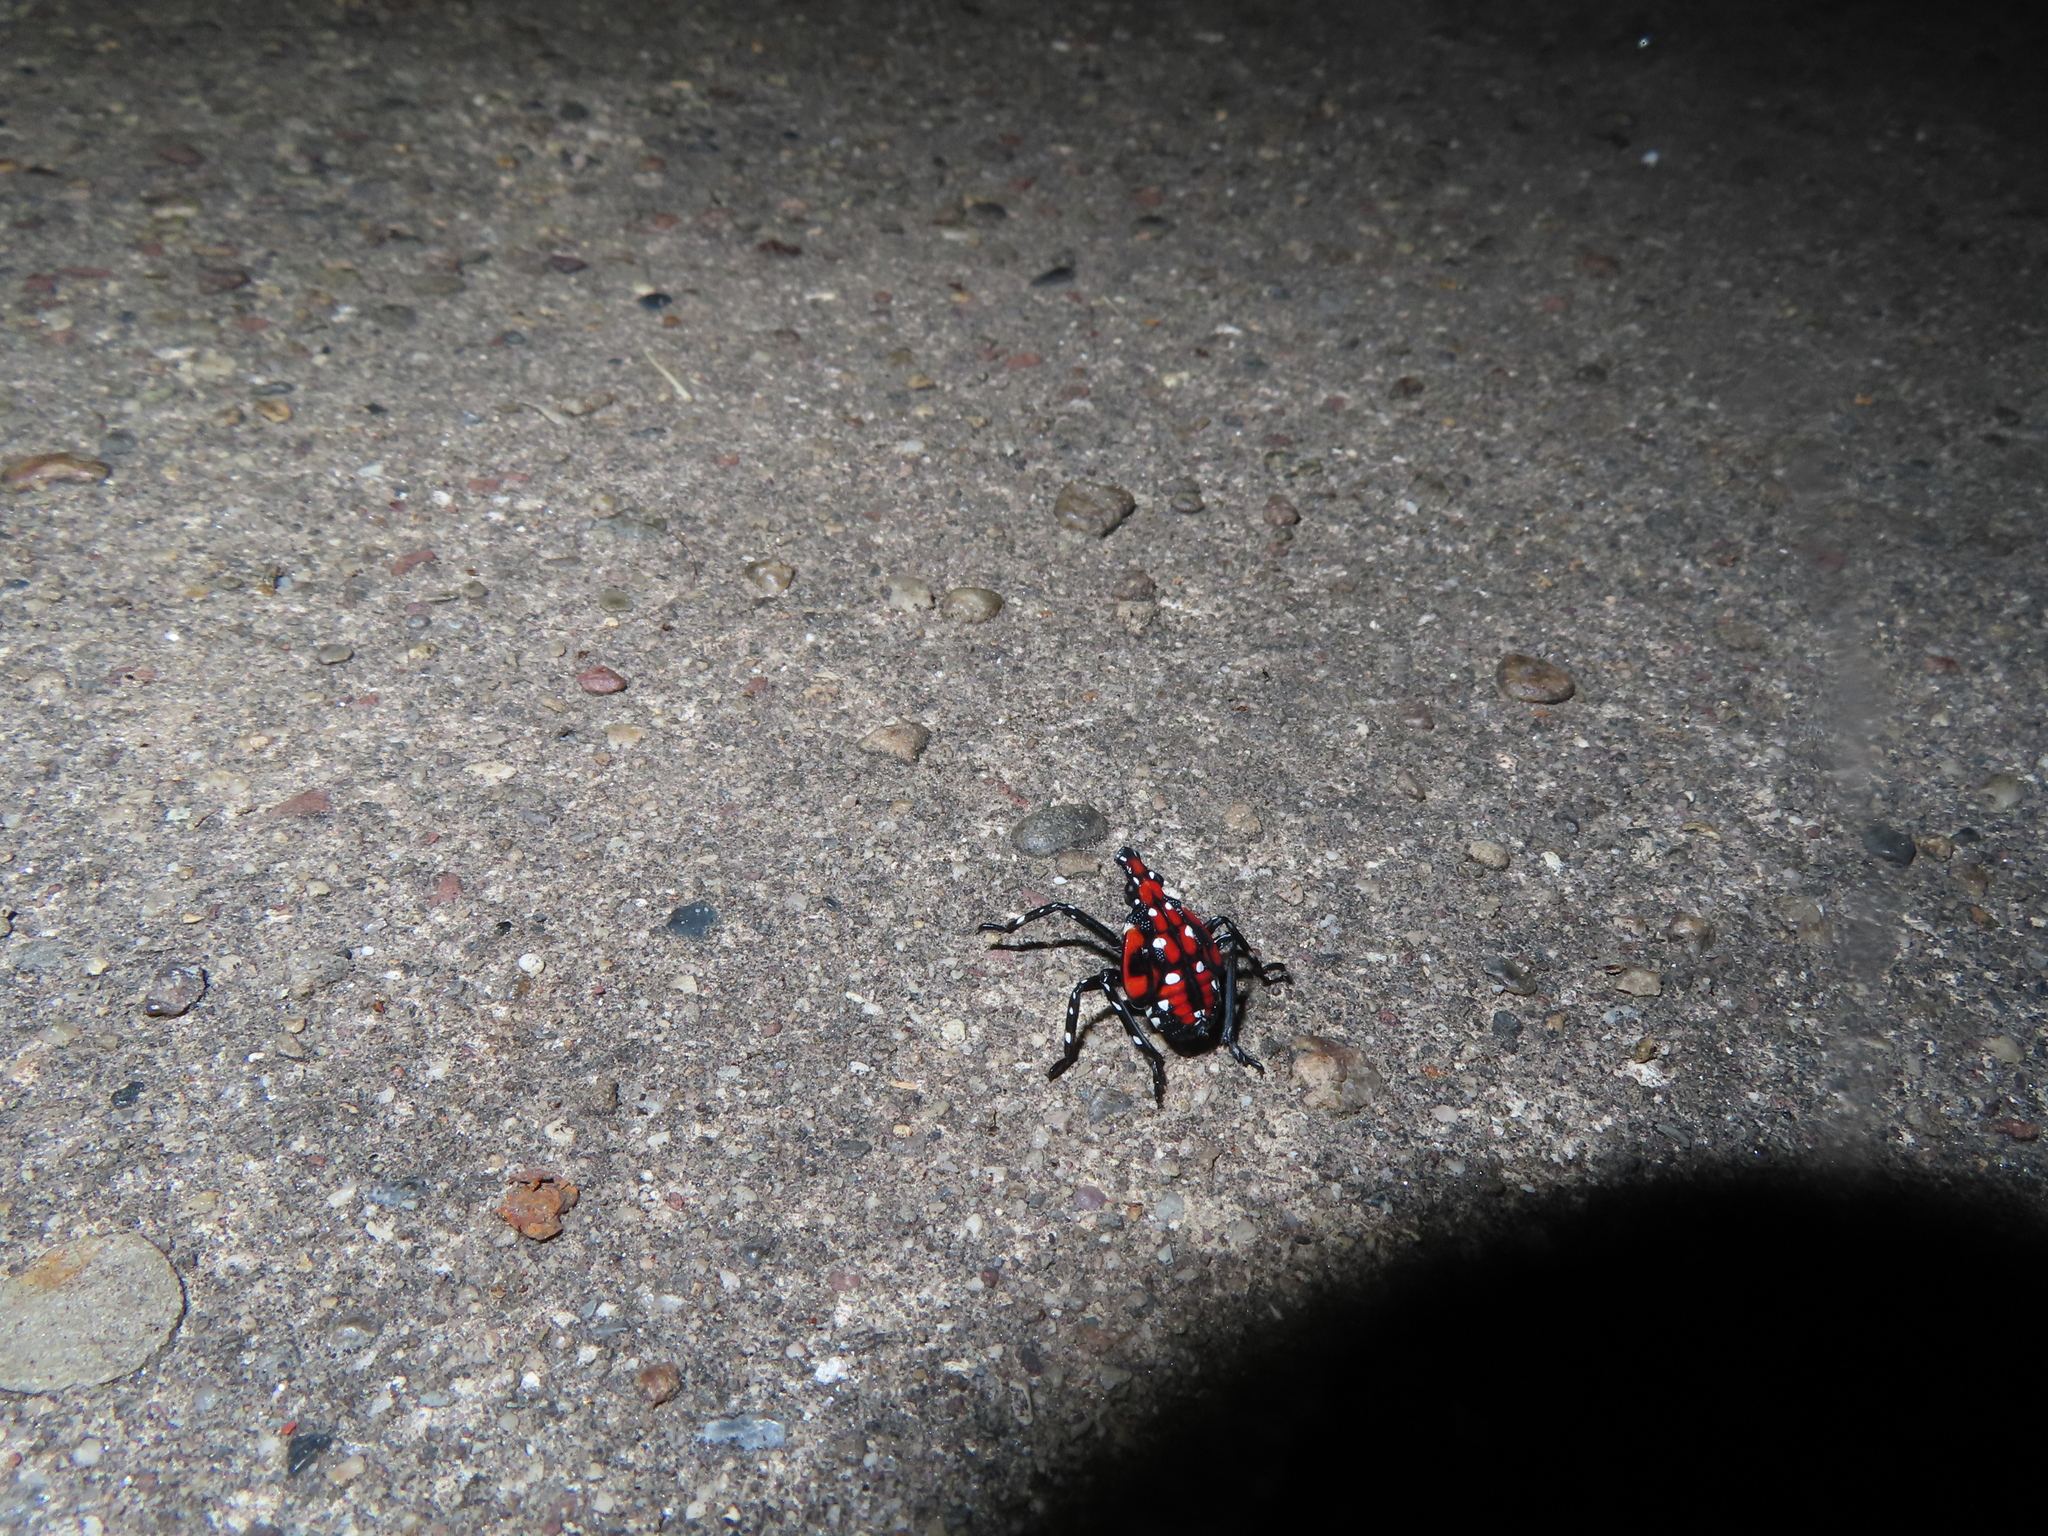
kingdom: Animalia
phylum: Arthropoda
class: Insecta
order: Hemiptera
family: Fulgoridae
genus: Lycorma
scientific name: Lycorma delicatula
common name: Spotted lanternfly
